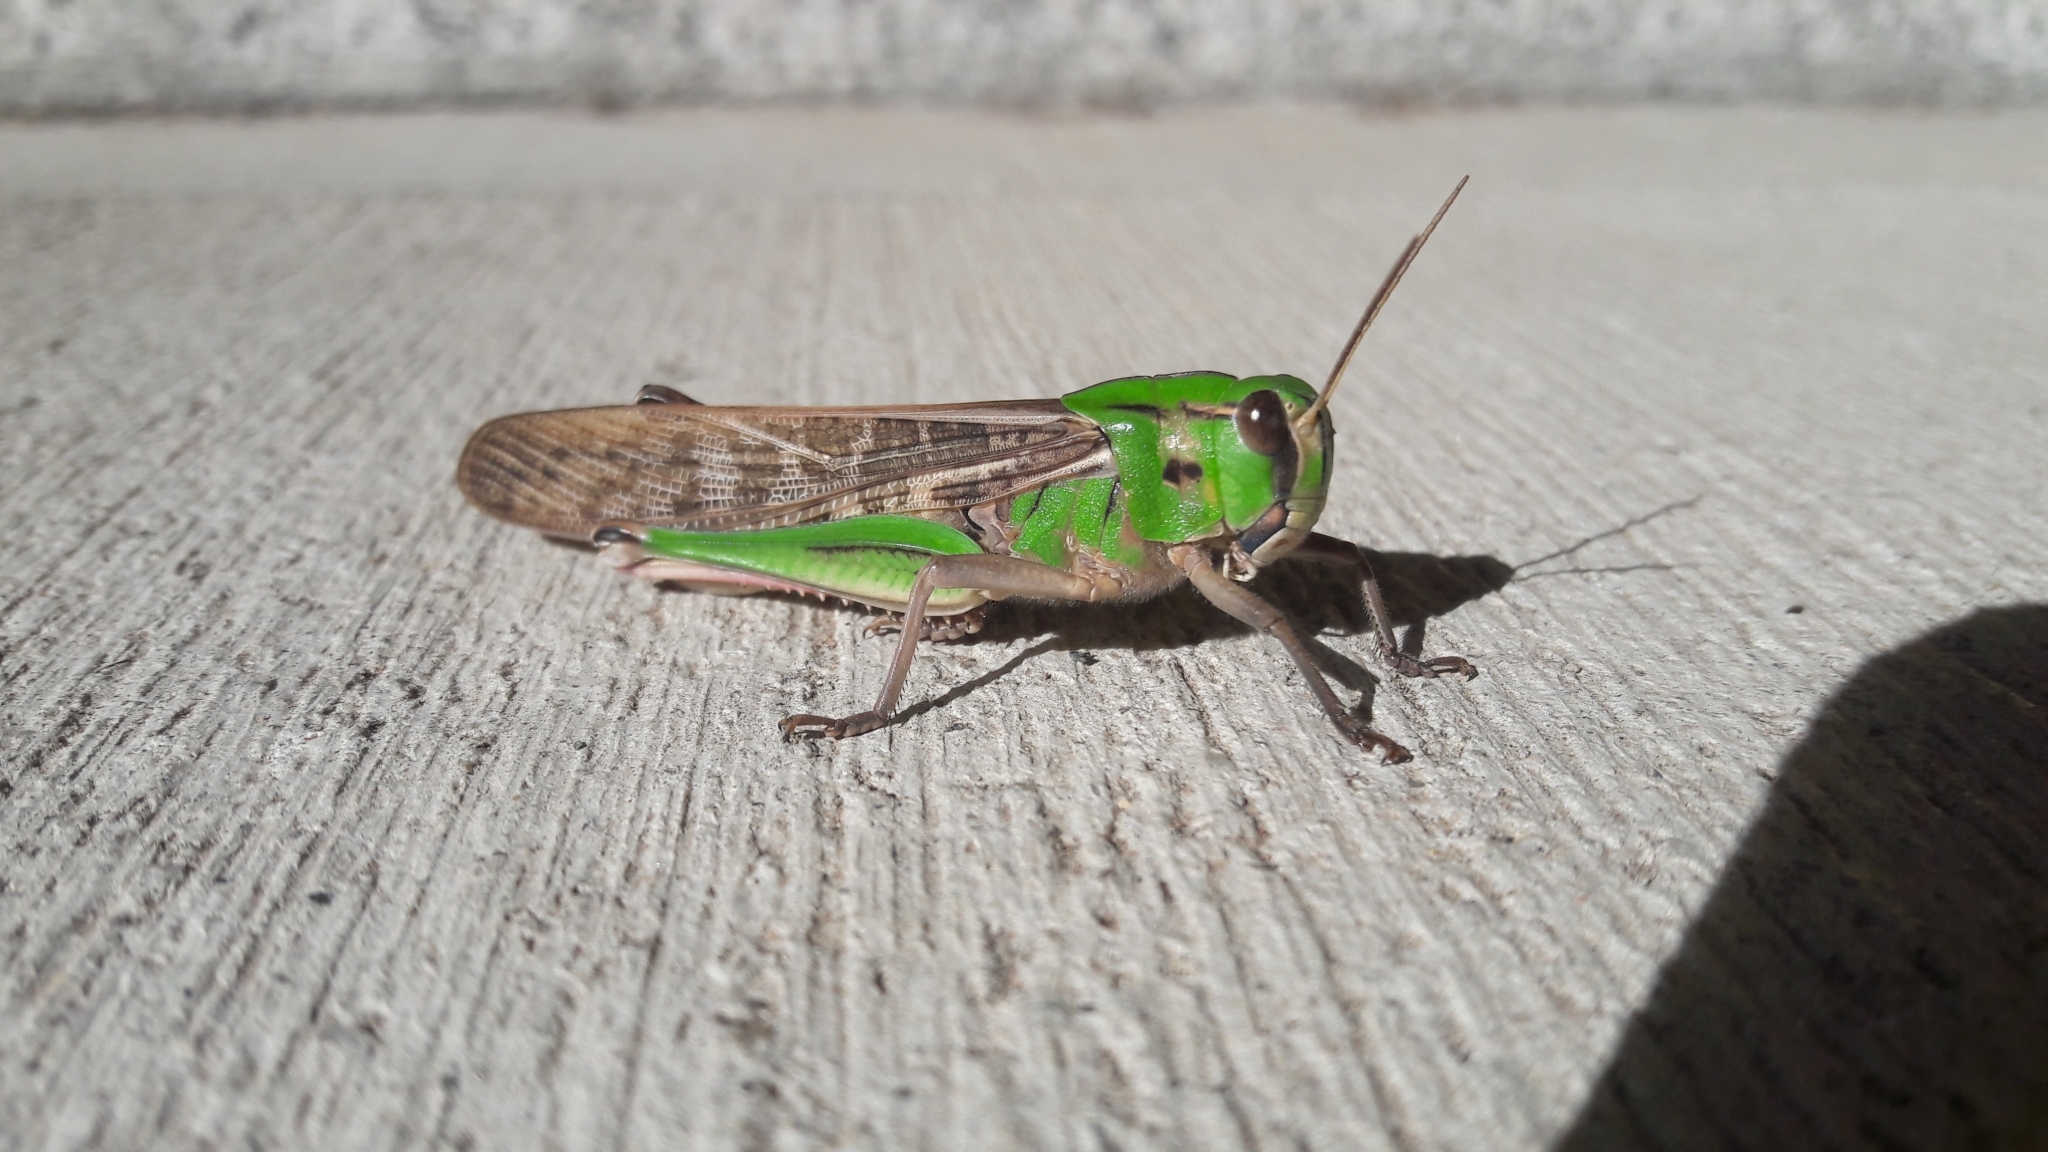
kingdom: Animalia
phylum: Arthropoda
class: Insecta
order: Orthoptera
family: Acrididae
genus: Locusta
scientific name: Locusta migratoria
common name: Migratory locust
